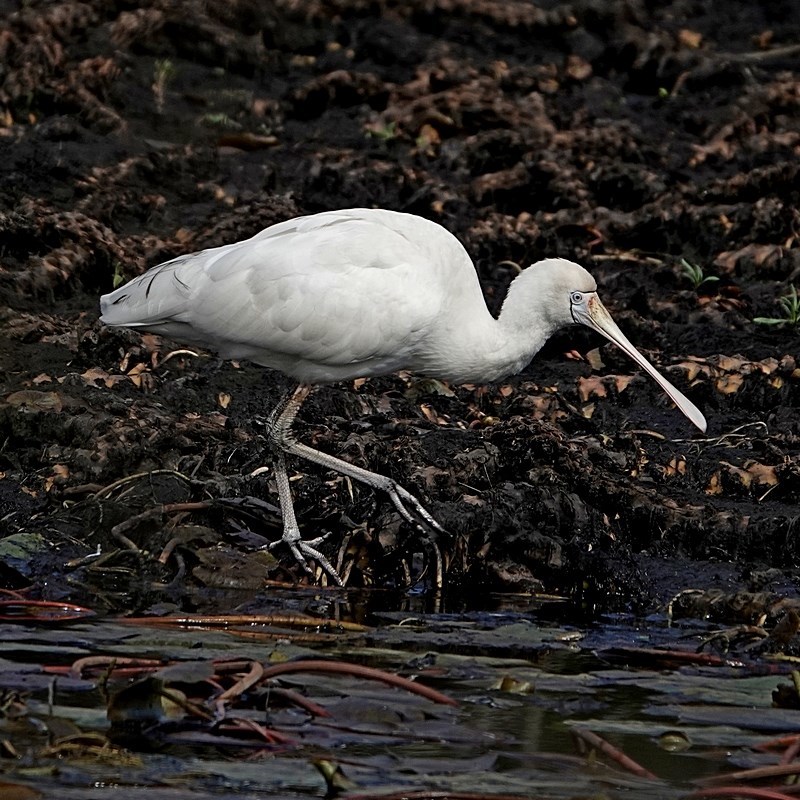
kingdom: Animalia
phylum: Chordata
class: Aves
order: Pelecaniformes
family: Threskiornithidae
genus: Platalea
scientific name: Platalea flavipes
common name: Yellow-billed spoonbill
